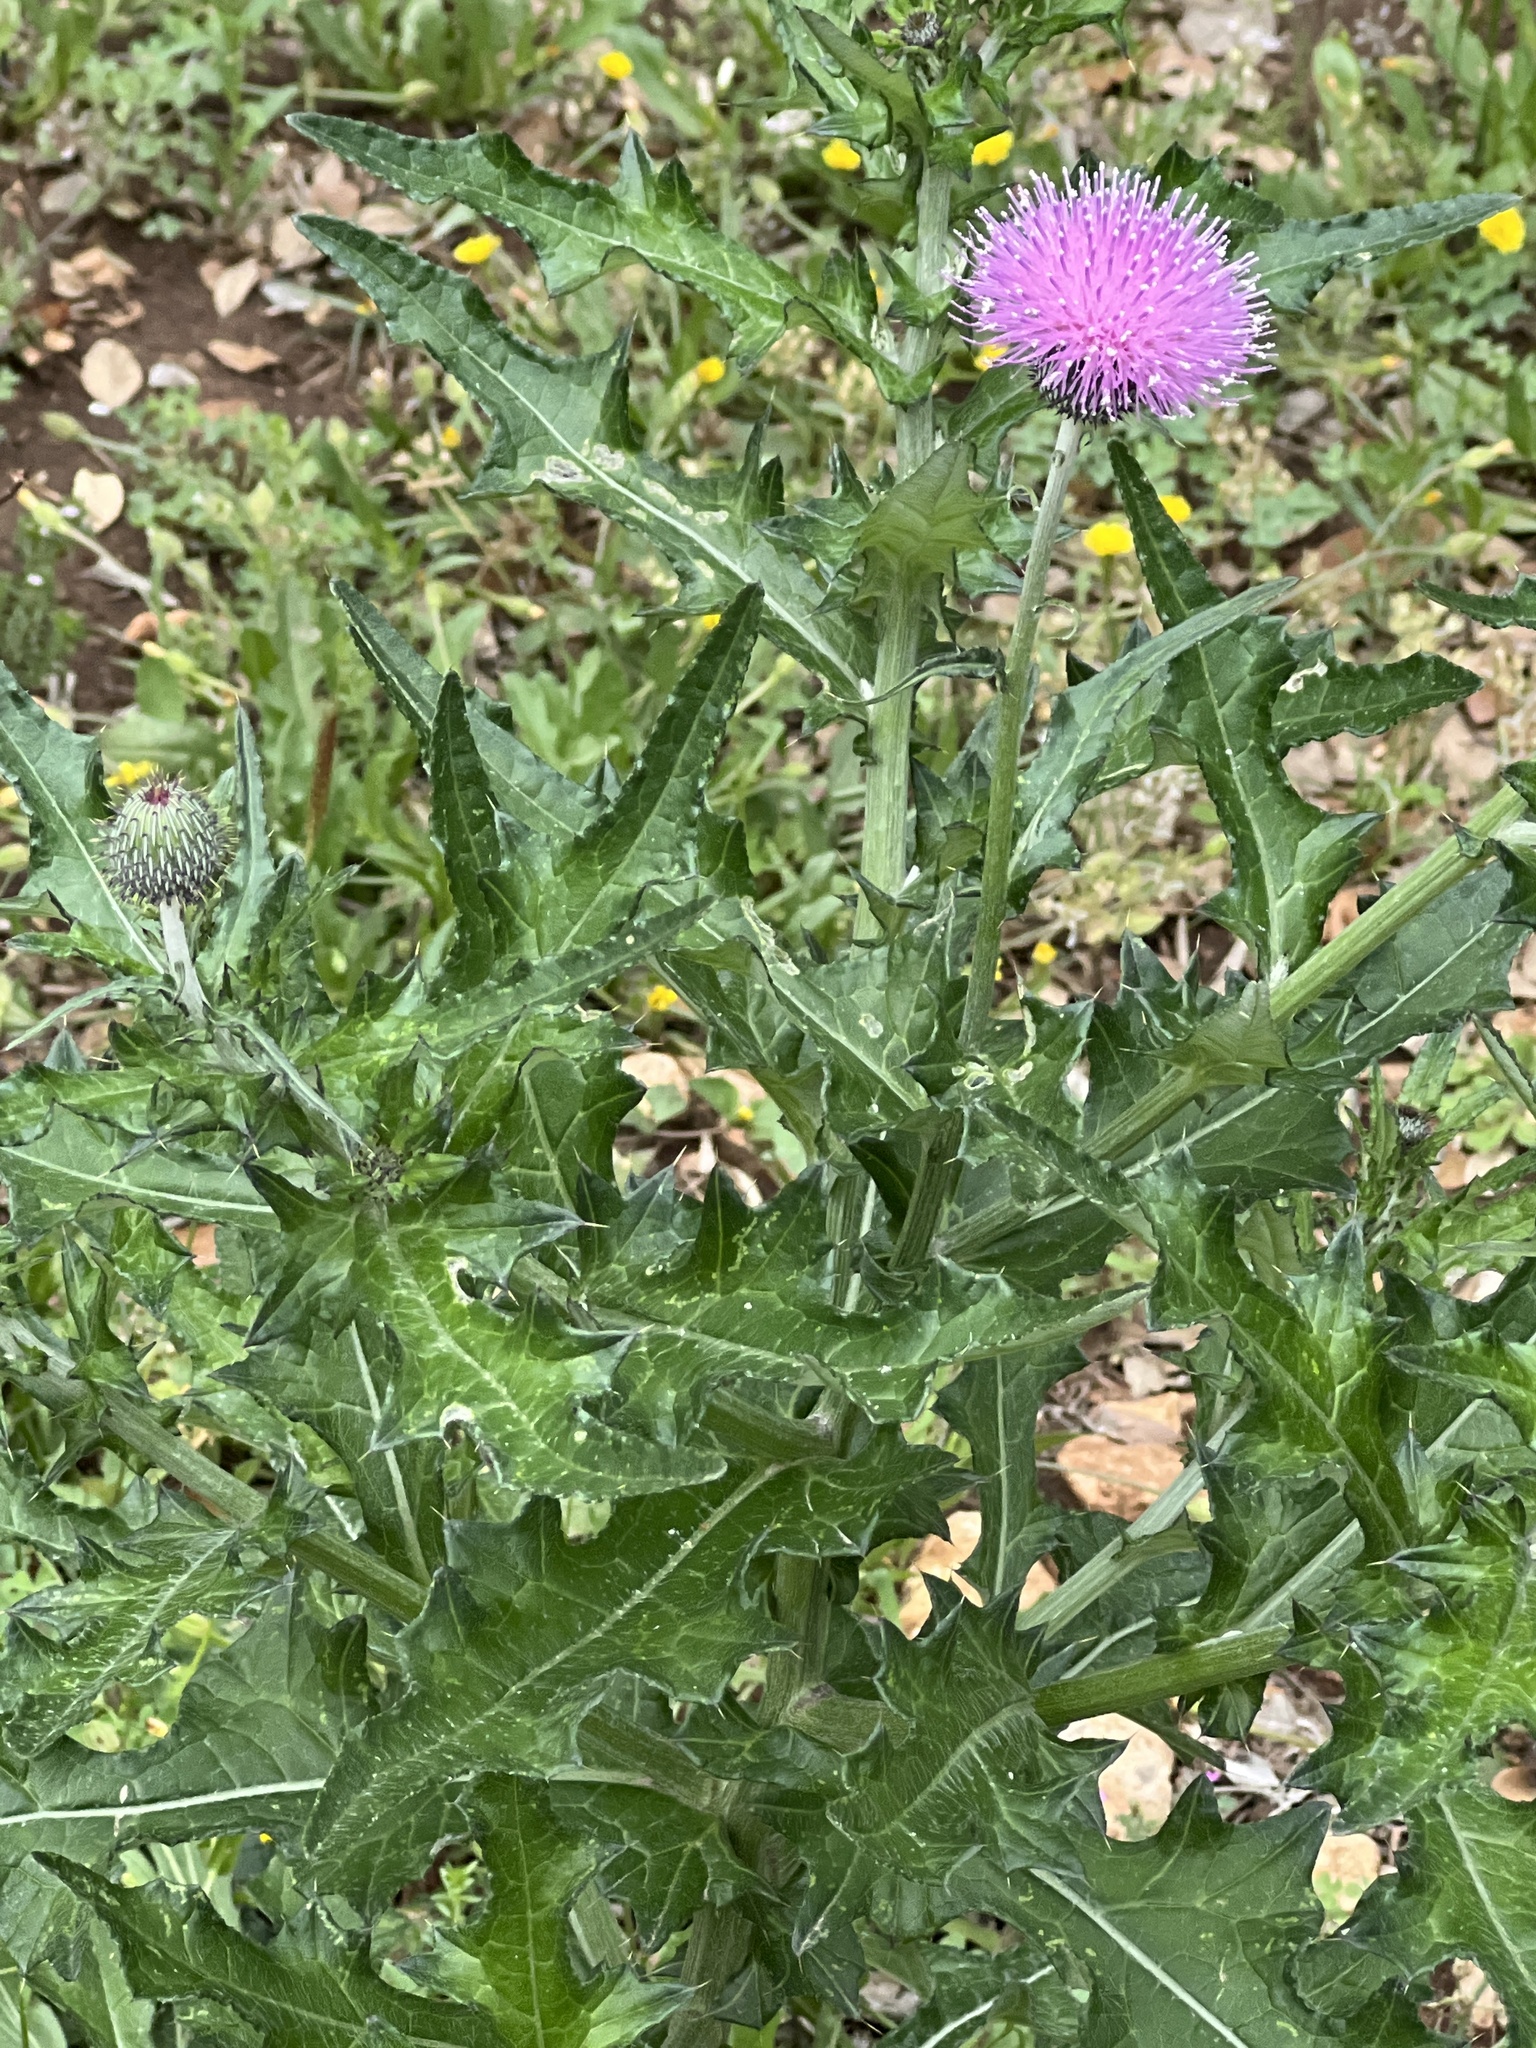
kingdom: Plantae
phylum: Tracheophyta
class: Magnoliopsida
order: Asterales
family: Asteraceae
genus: Cirsium
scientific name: Cirsium texanum
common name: Texas purple thistle
